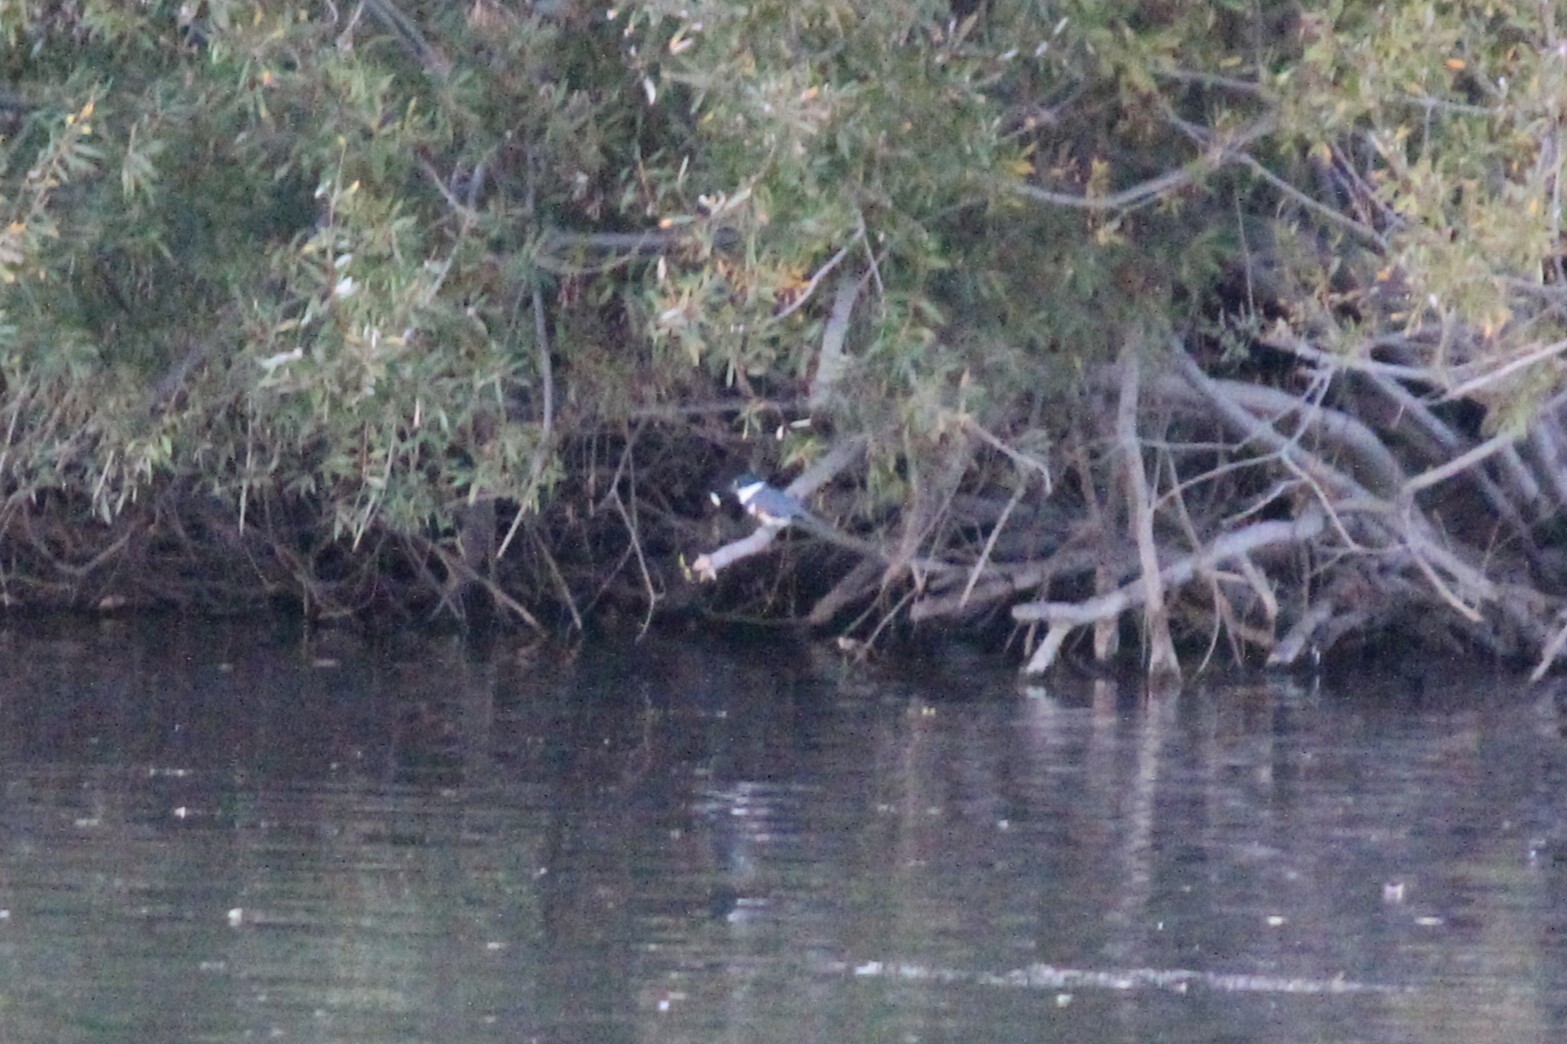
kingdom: Animalia
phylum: Chordata
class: Aves
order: Coraciiformes
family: Alcedinidae
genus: Megaceryle
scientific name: Megaceryle alcyon
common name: Belted kingfisher
